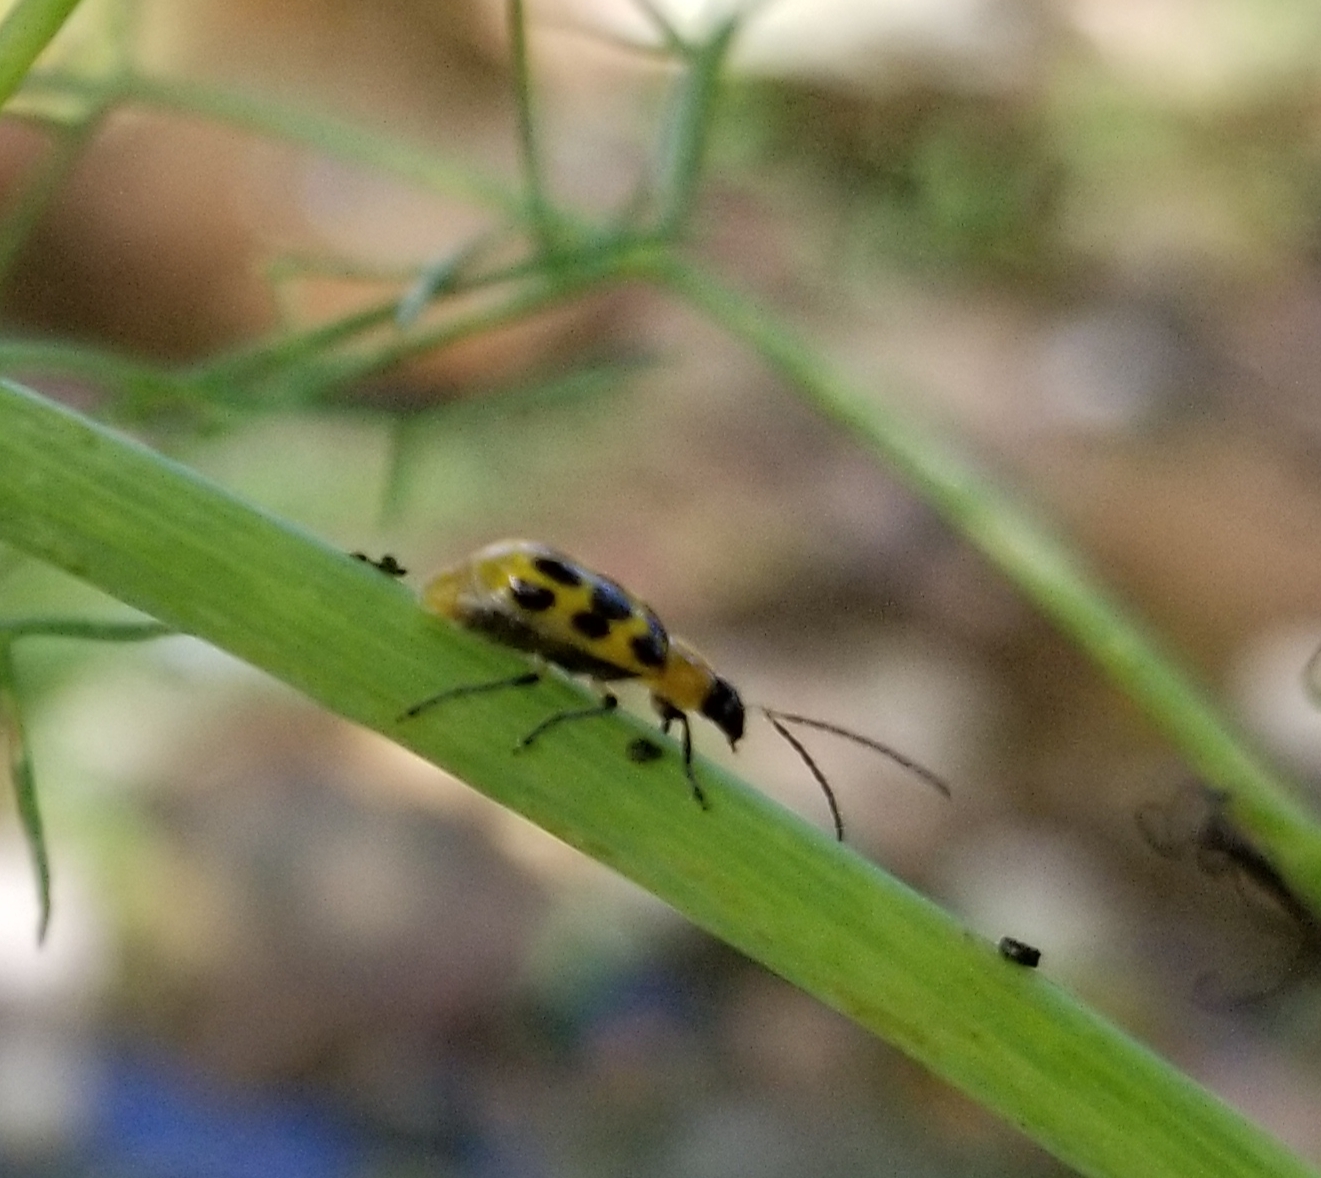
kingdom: Animalia
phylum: Arthropoda
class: Insecta
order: Coleoptera
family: Chrysomelidae
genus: Diabrotica
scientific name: Diabrotica undecimpunctata
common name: Spotted cucumber beetle
